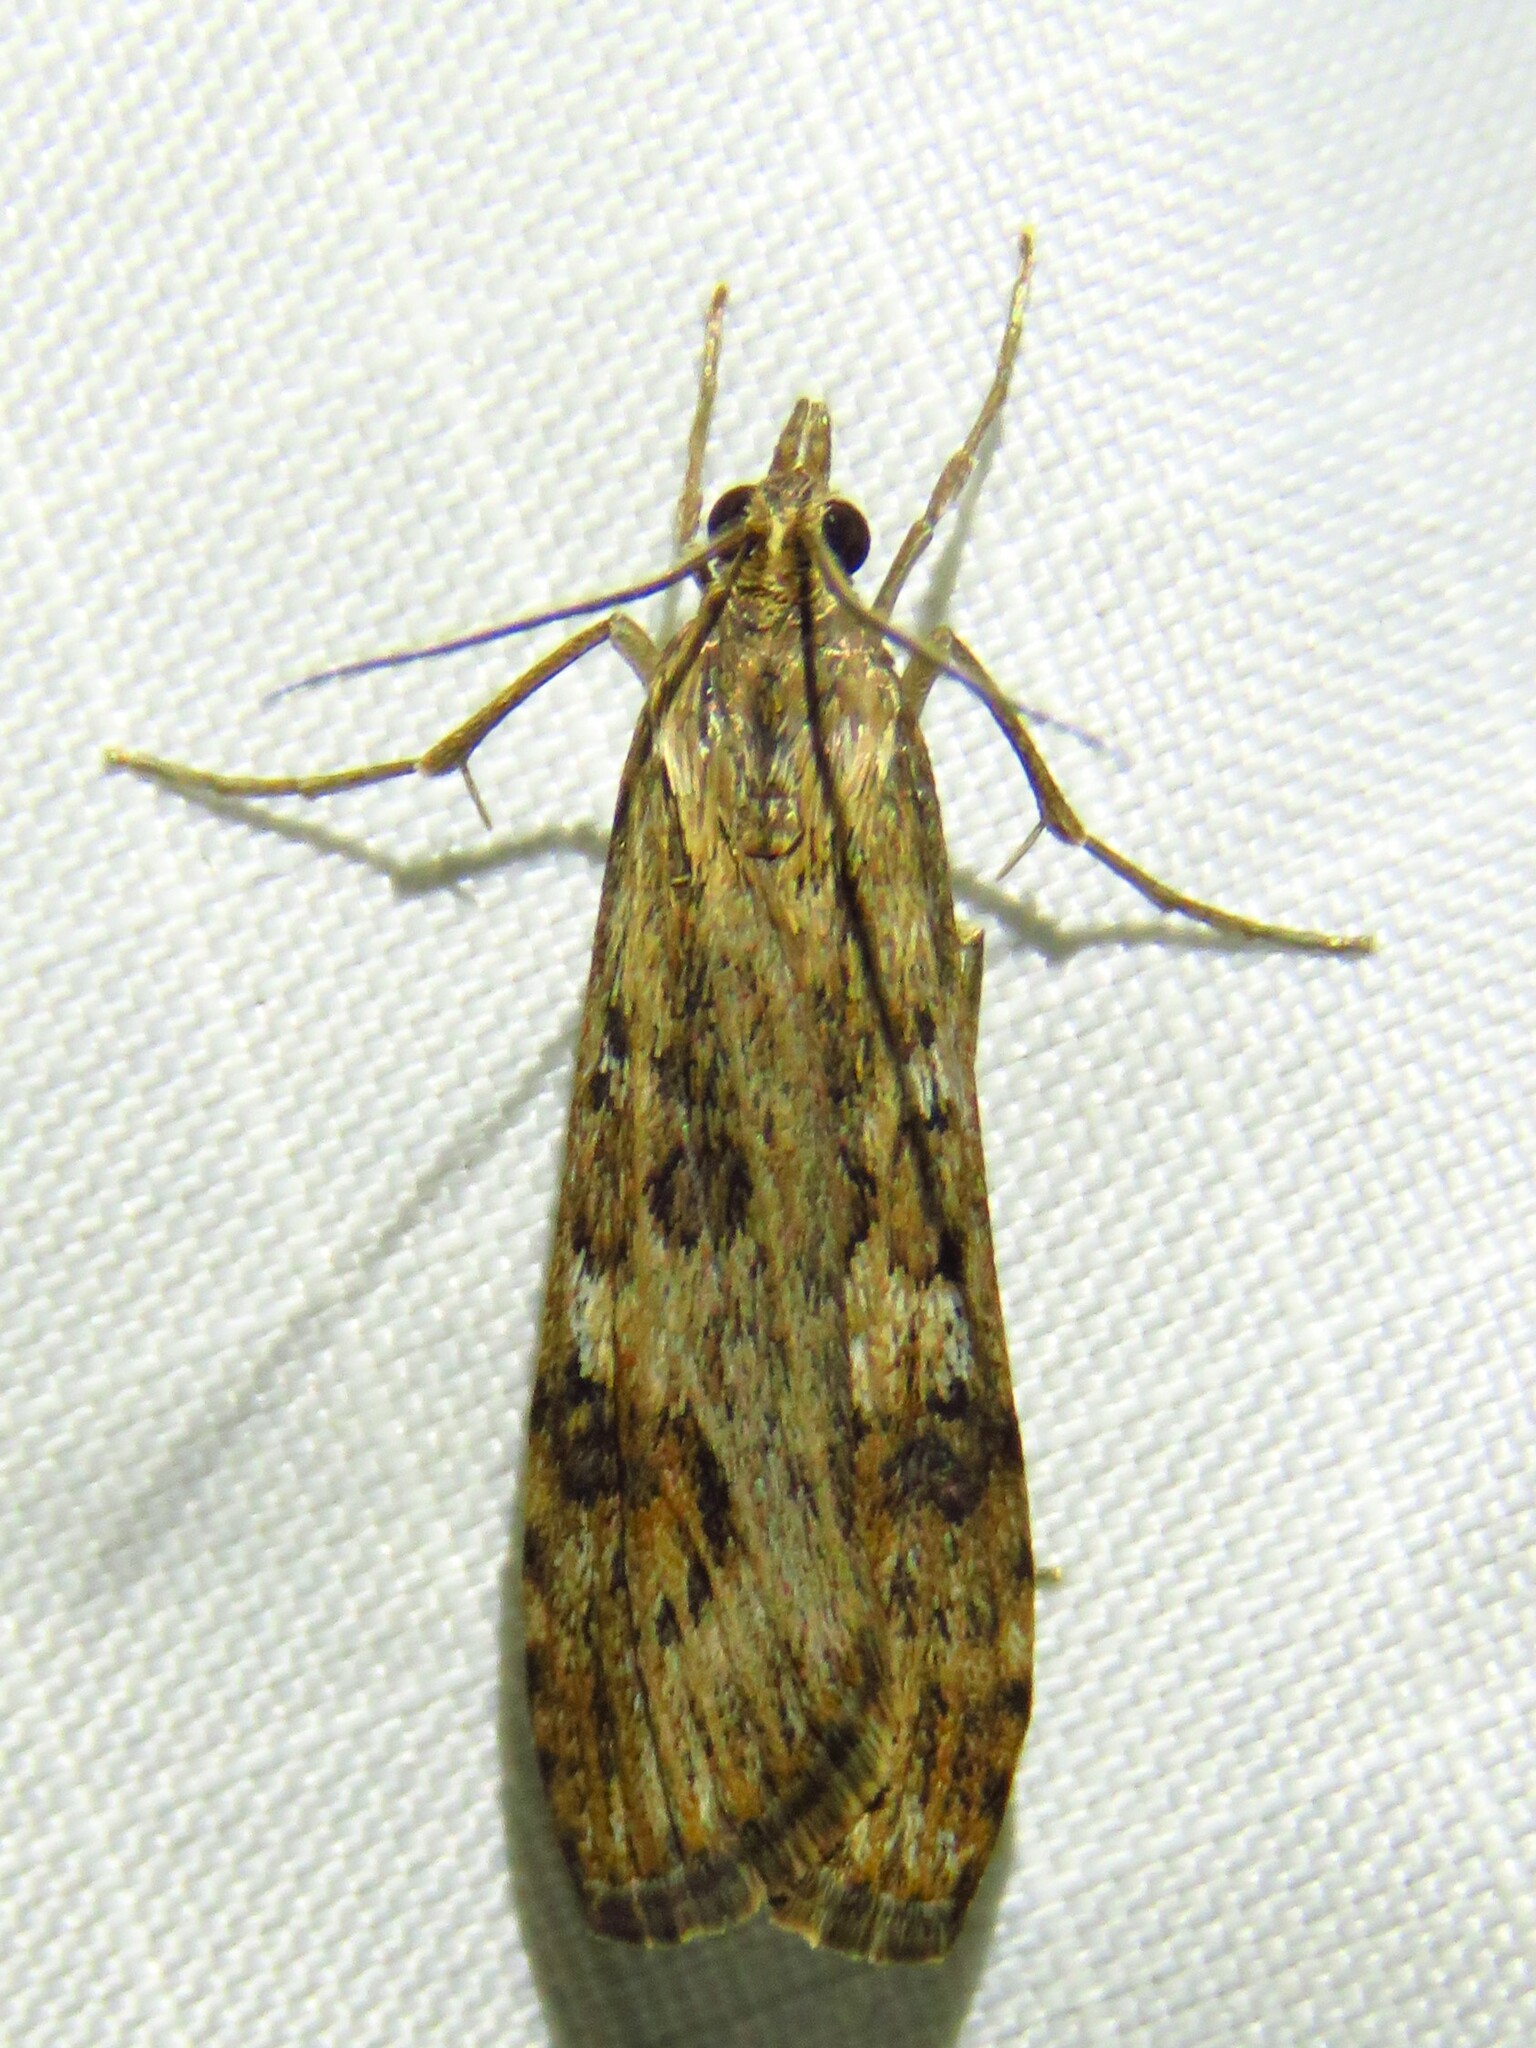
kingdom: Animalia
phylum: Arthropoda
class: Insecta
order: Lepidoptera
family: Crambidae
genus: Nomophila
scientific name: Nomophila nearctica
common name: American rush veneer
